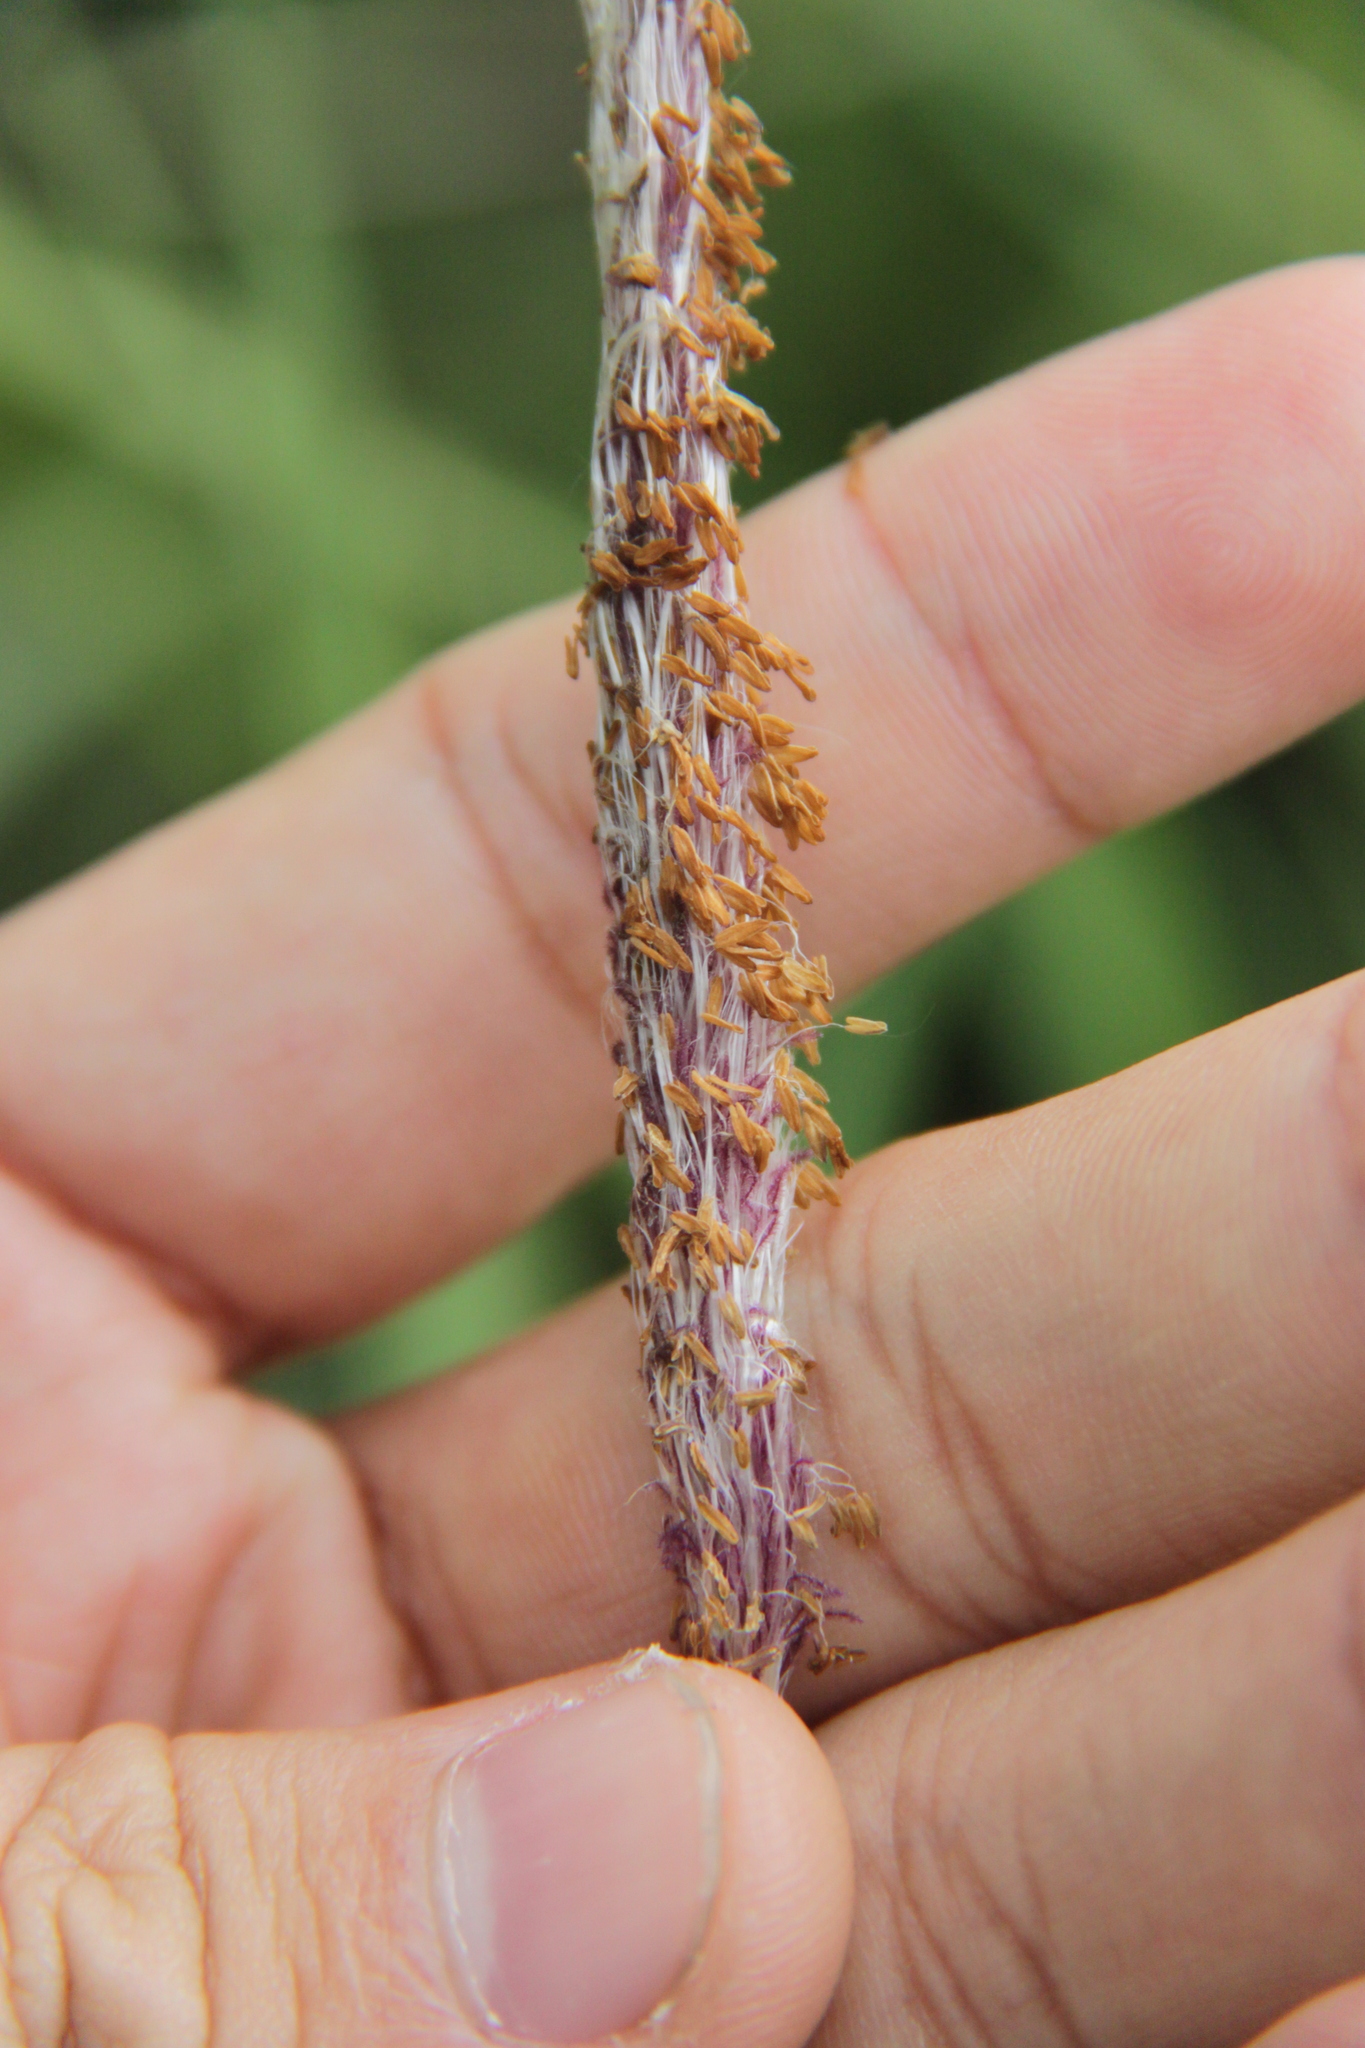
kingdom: Plantae
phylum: Tracheophyta
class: Liliopsida
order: Poales
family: Poaceae
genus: Imperata
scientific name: Imperata cylindrica
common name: Cogongrass
